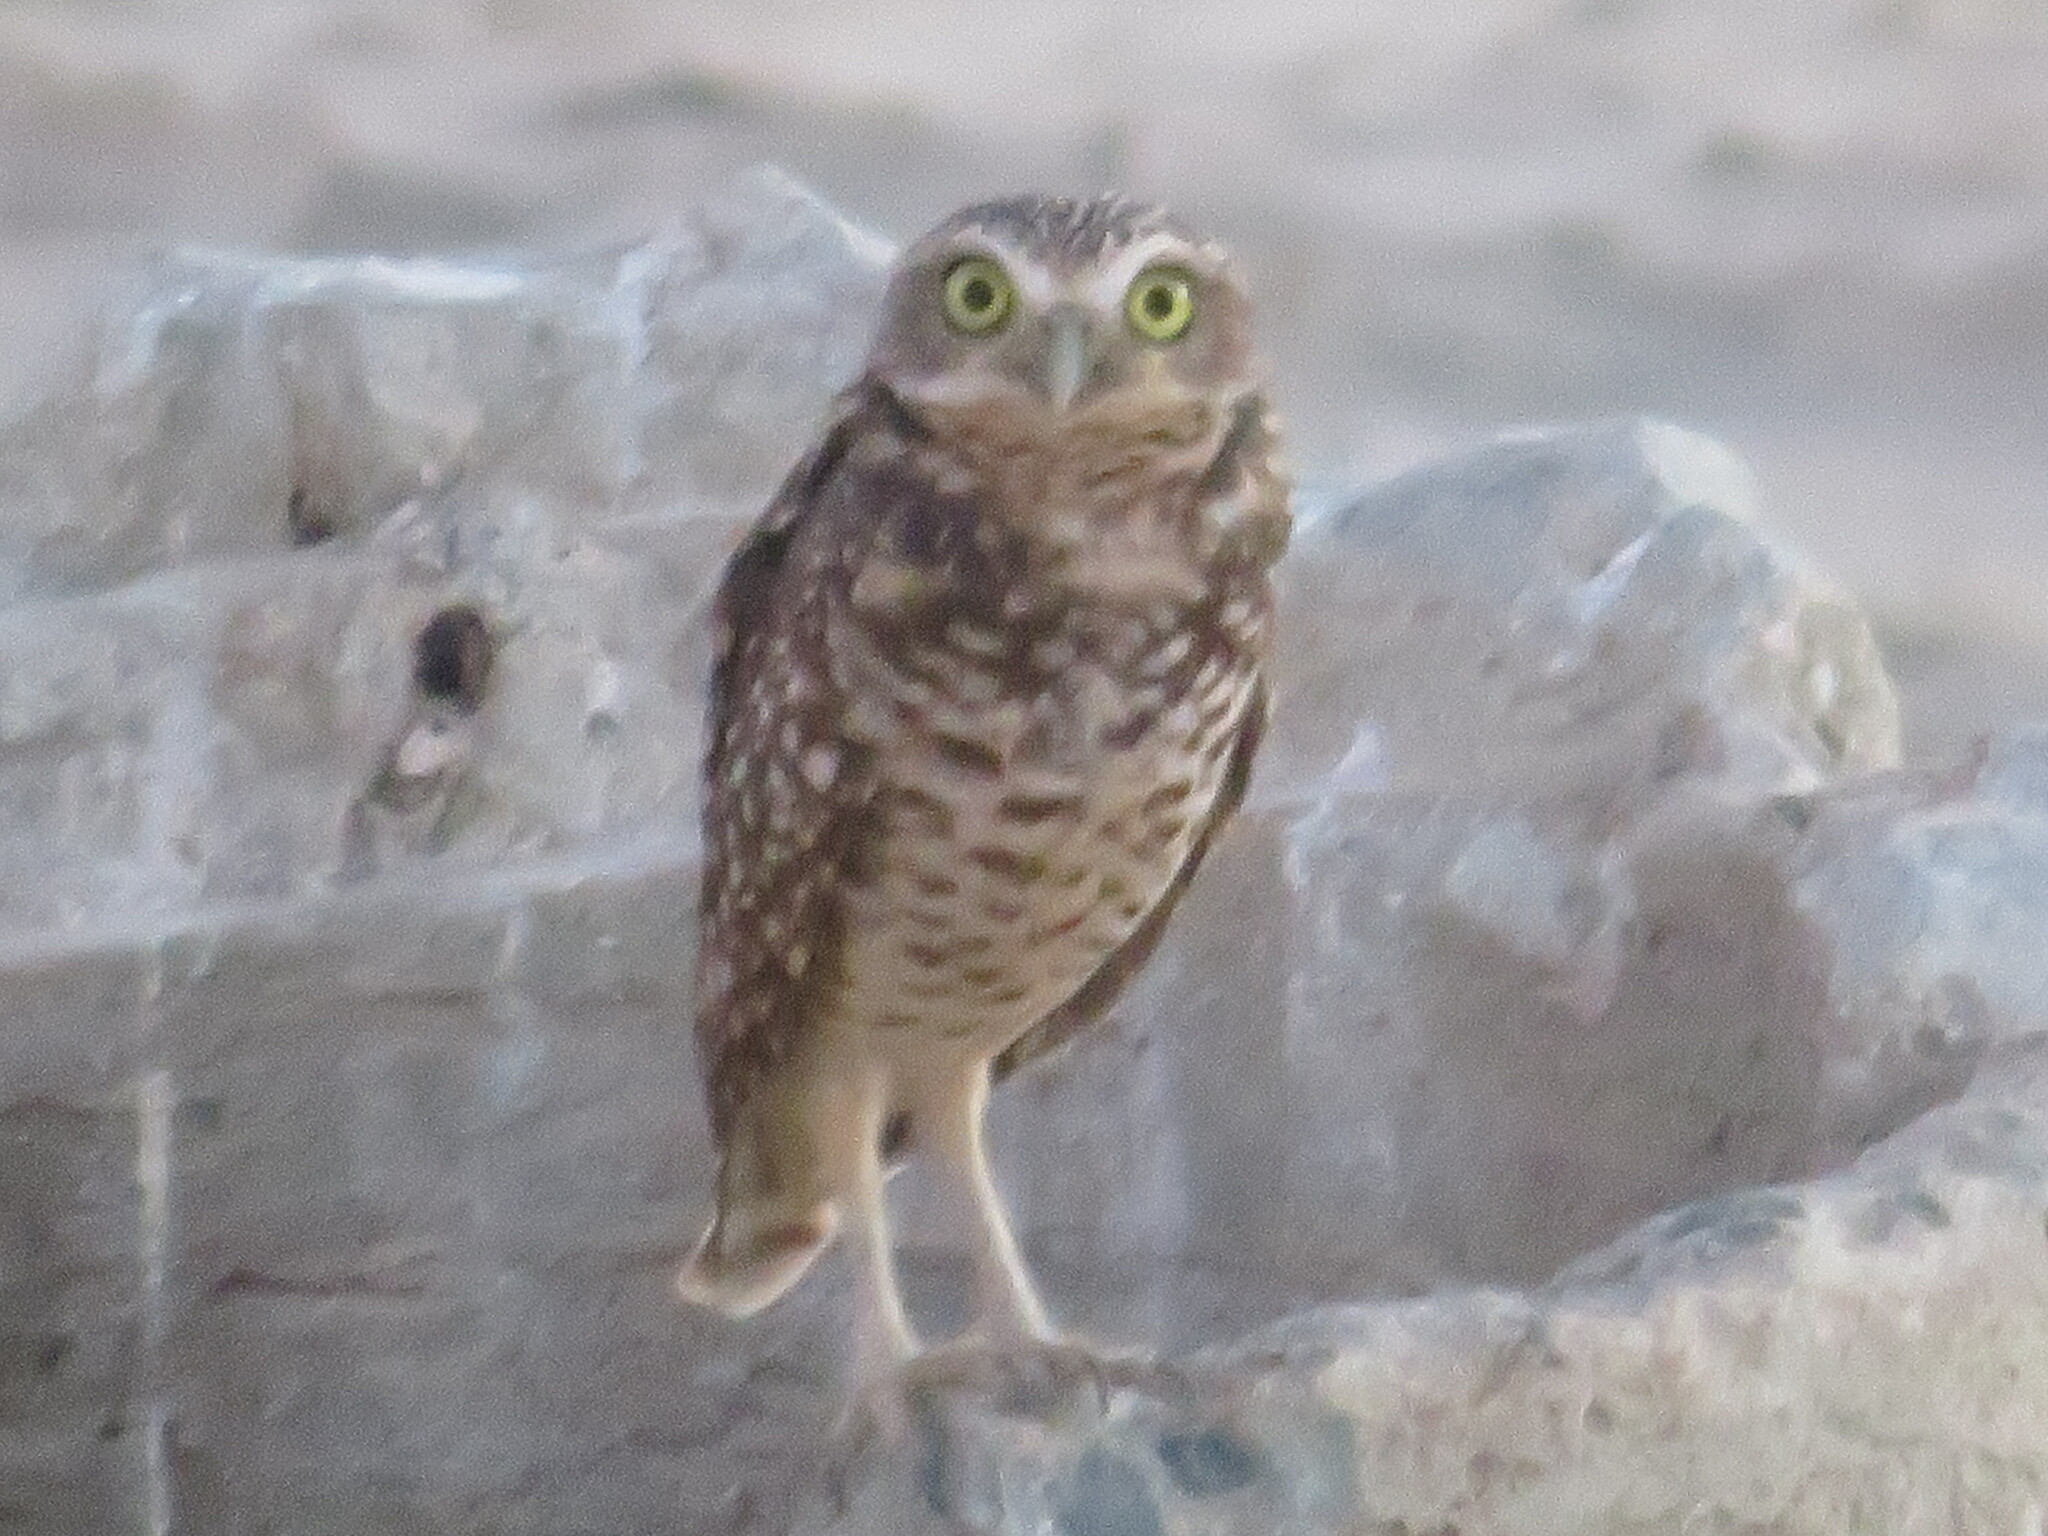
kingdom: Animalia
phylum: Chordata
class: Aves
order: Strigiformes
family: Strigidae
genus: Athene
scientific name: Athene cunicularia
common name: Burrowing owl
